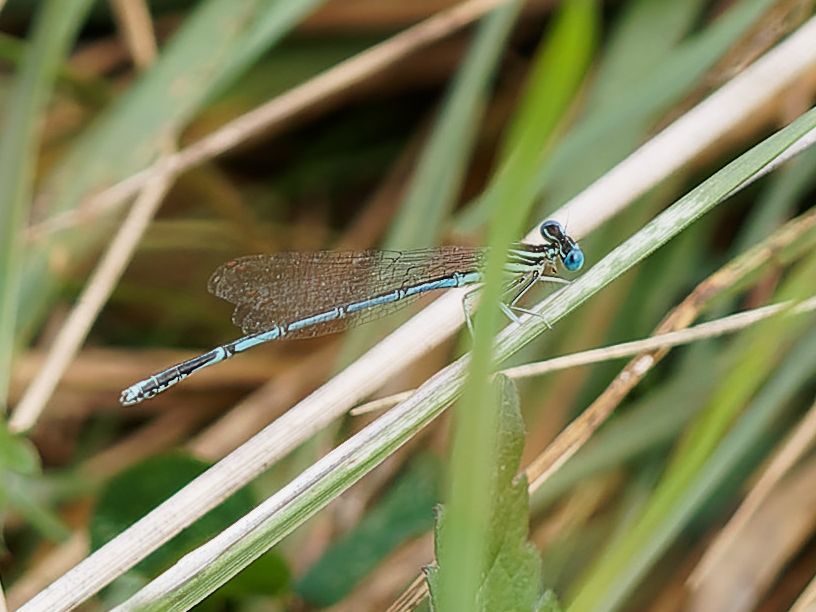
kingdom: Animalia
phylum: Arthropoda
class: Insecta
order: Odonata
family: Platycnemididae
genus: Platycnemis
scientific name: Platycnemis pennipes
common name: White-legged damselfly
